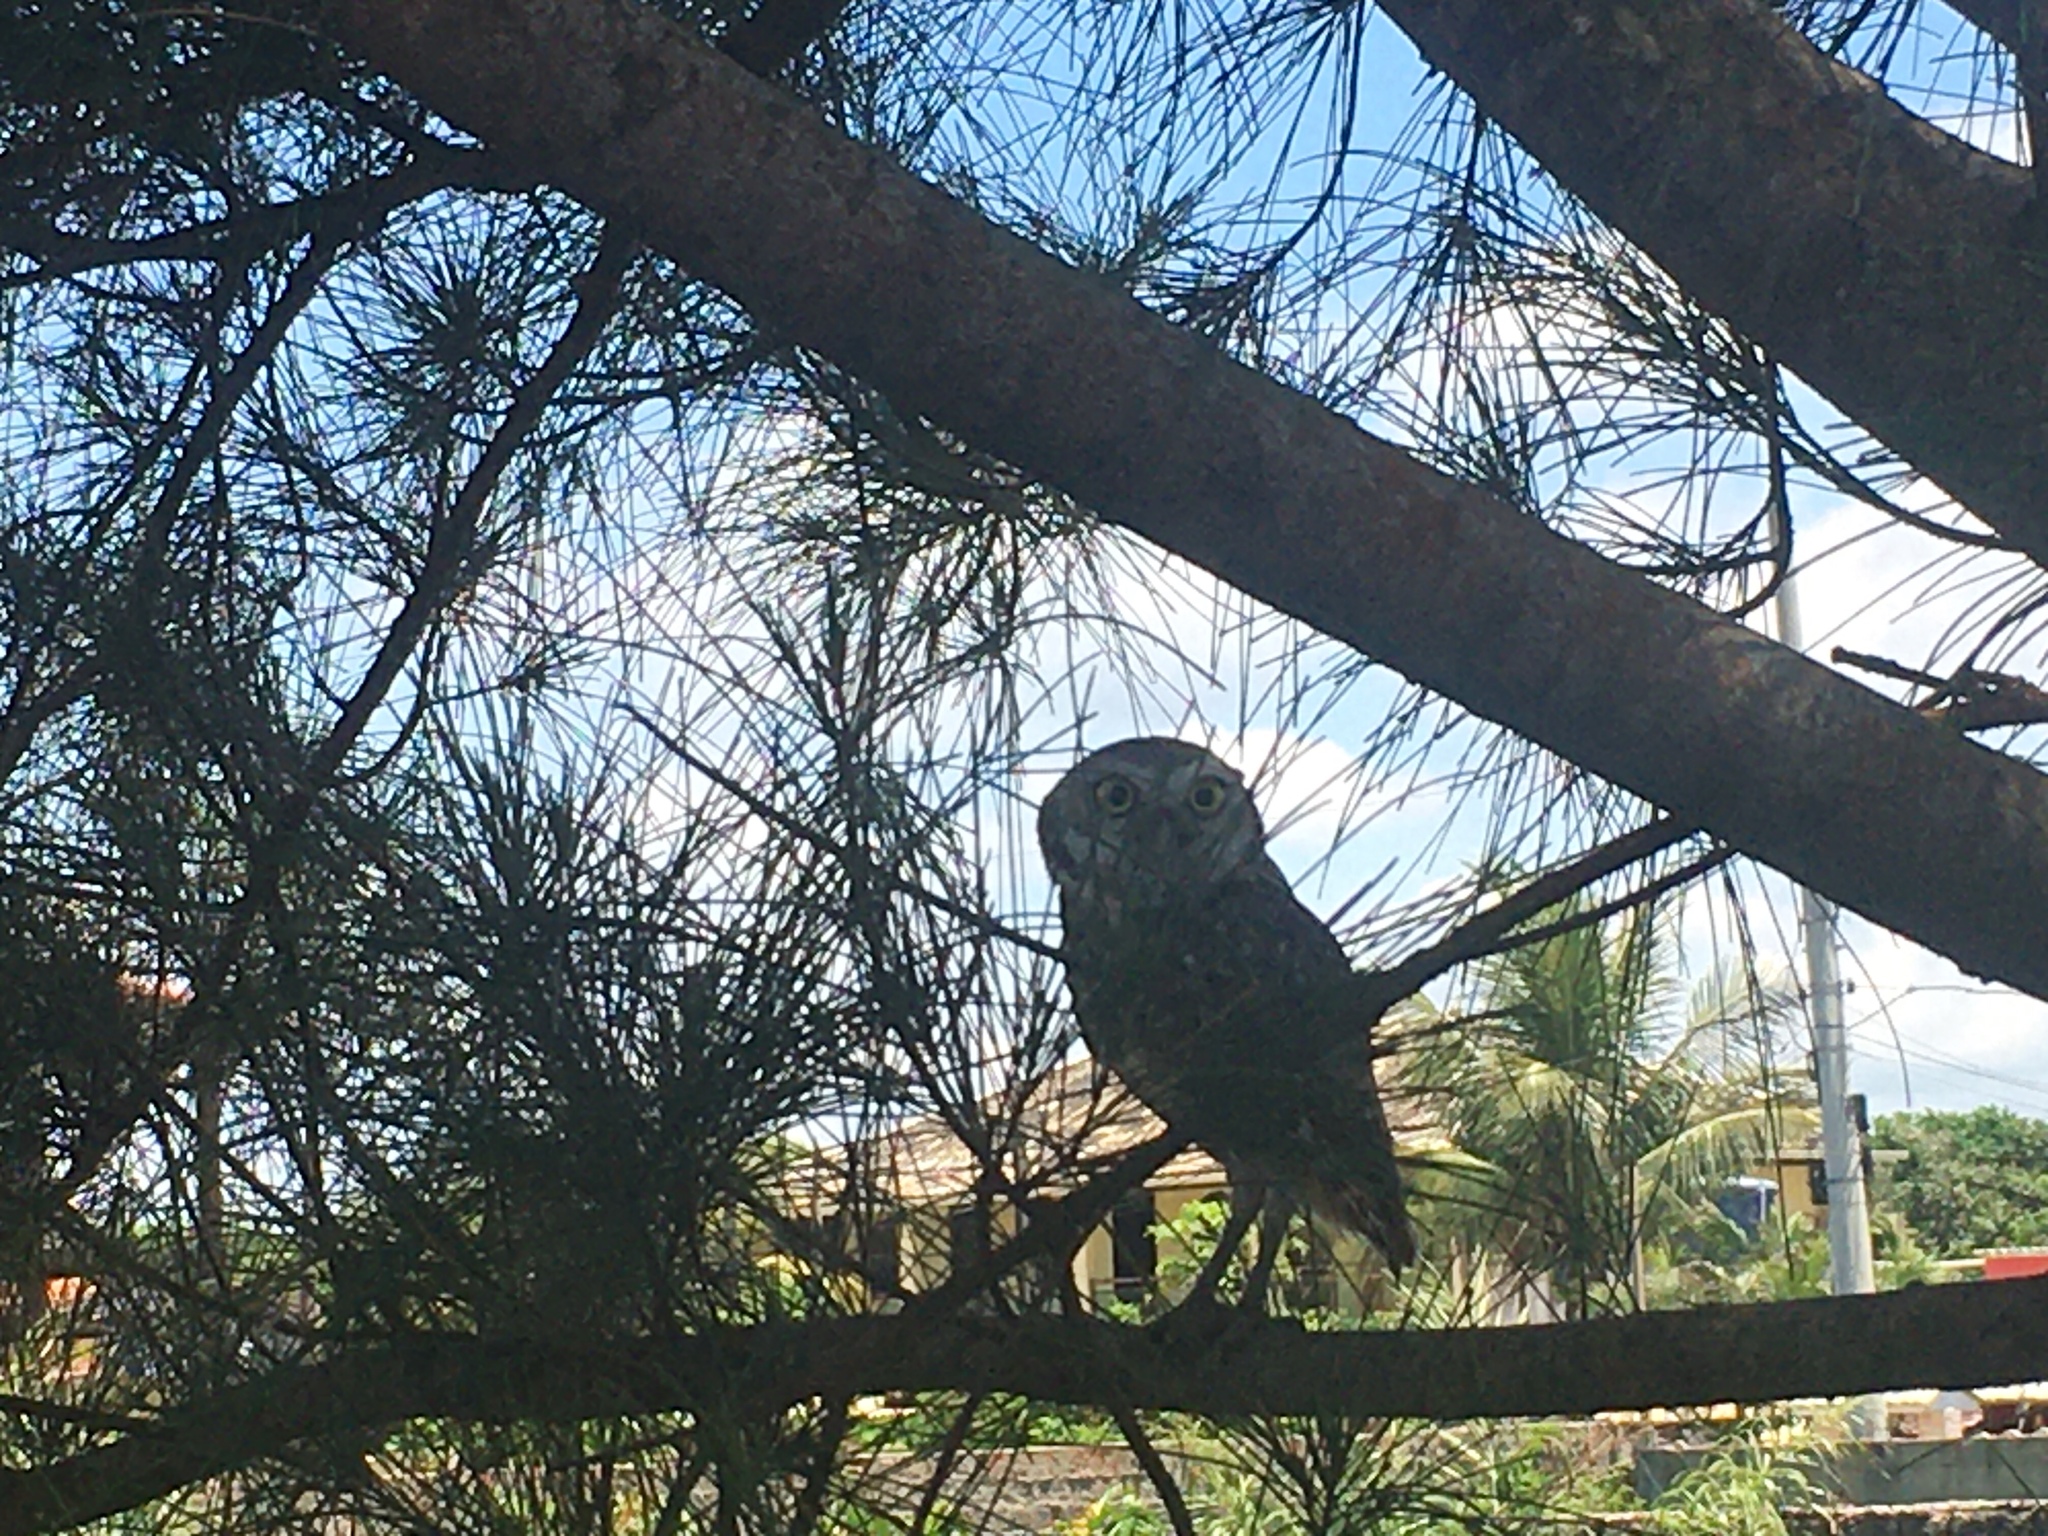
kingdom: Animalia
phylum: Chordata
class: Aves
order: Strigiformes
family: Strigidae
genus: Athene
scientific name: Athene cunicularia
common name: Burrowing owl
